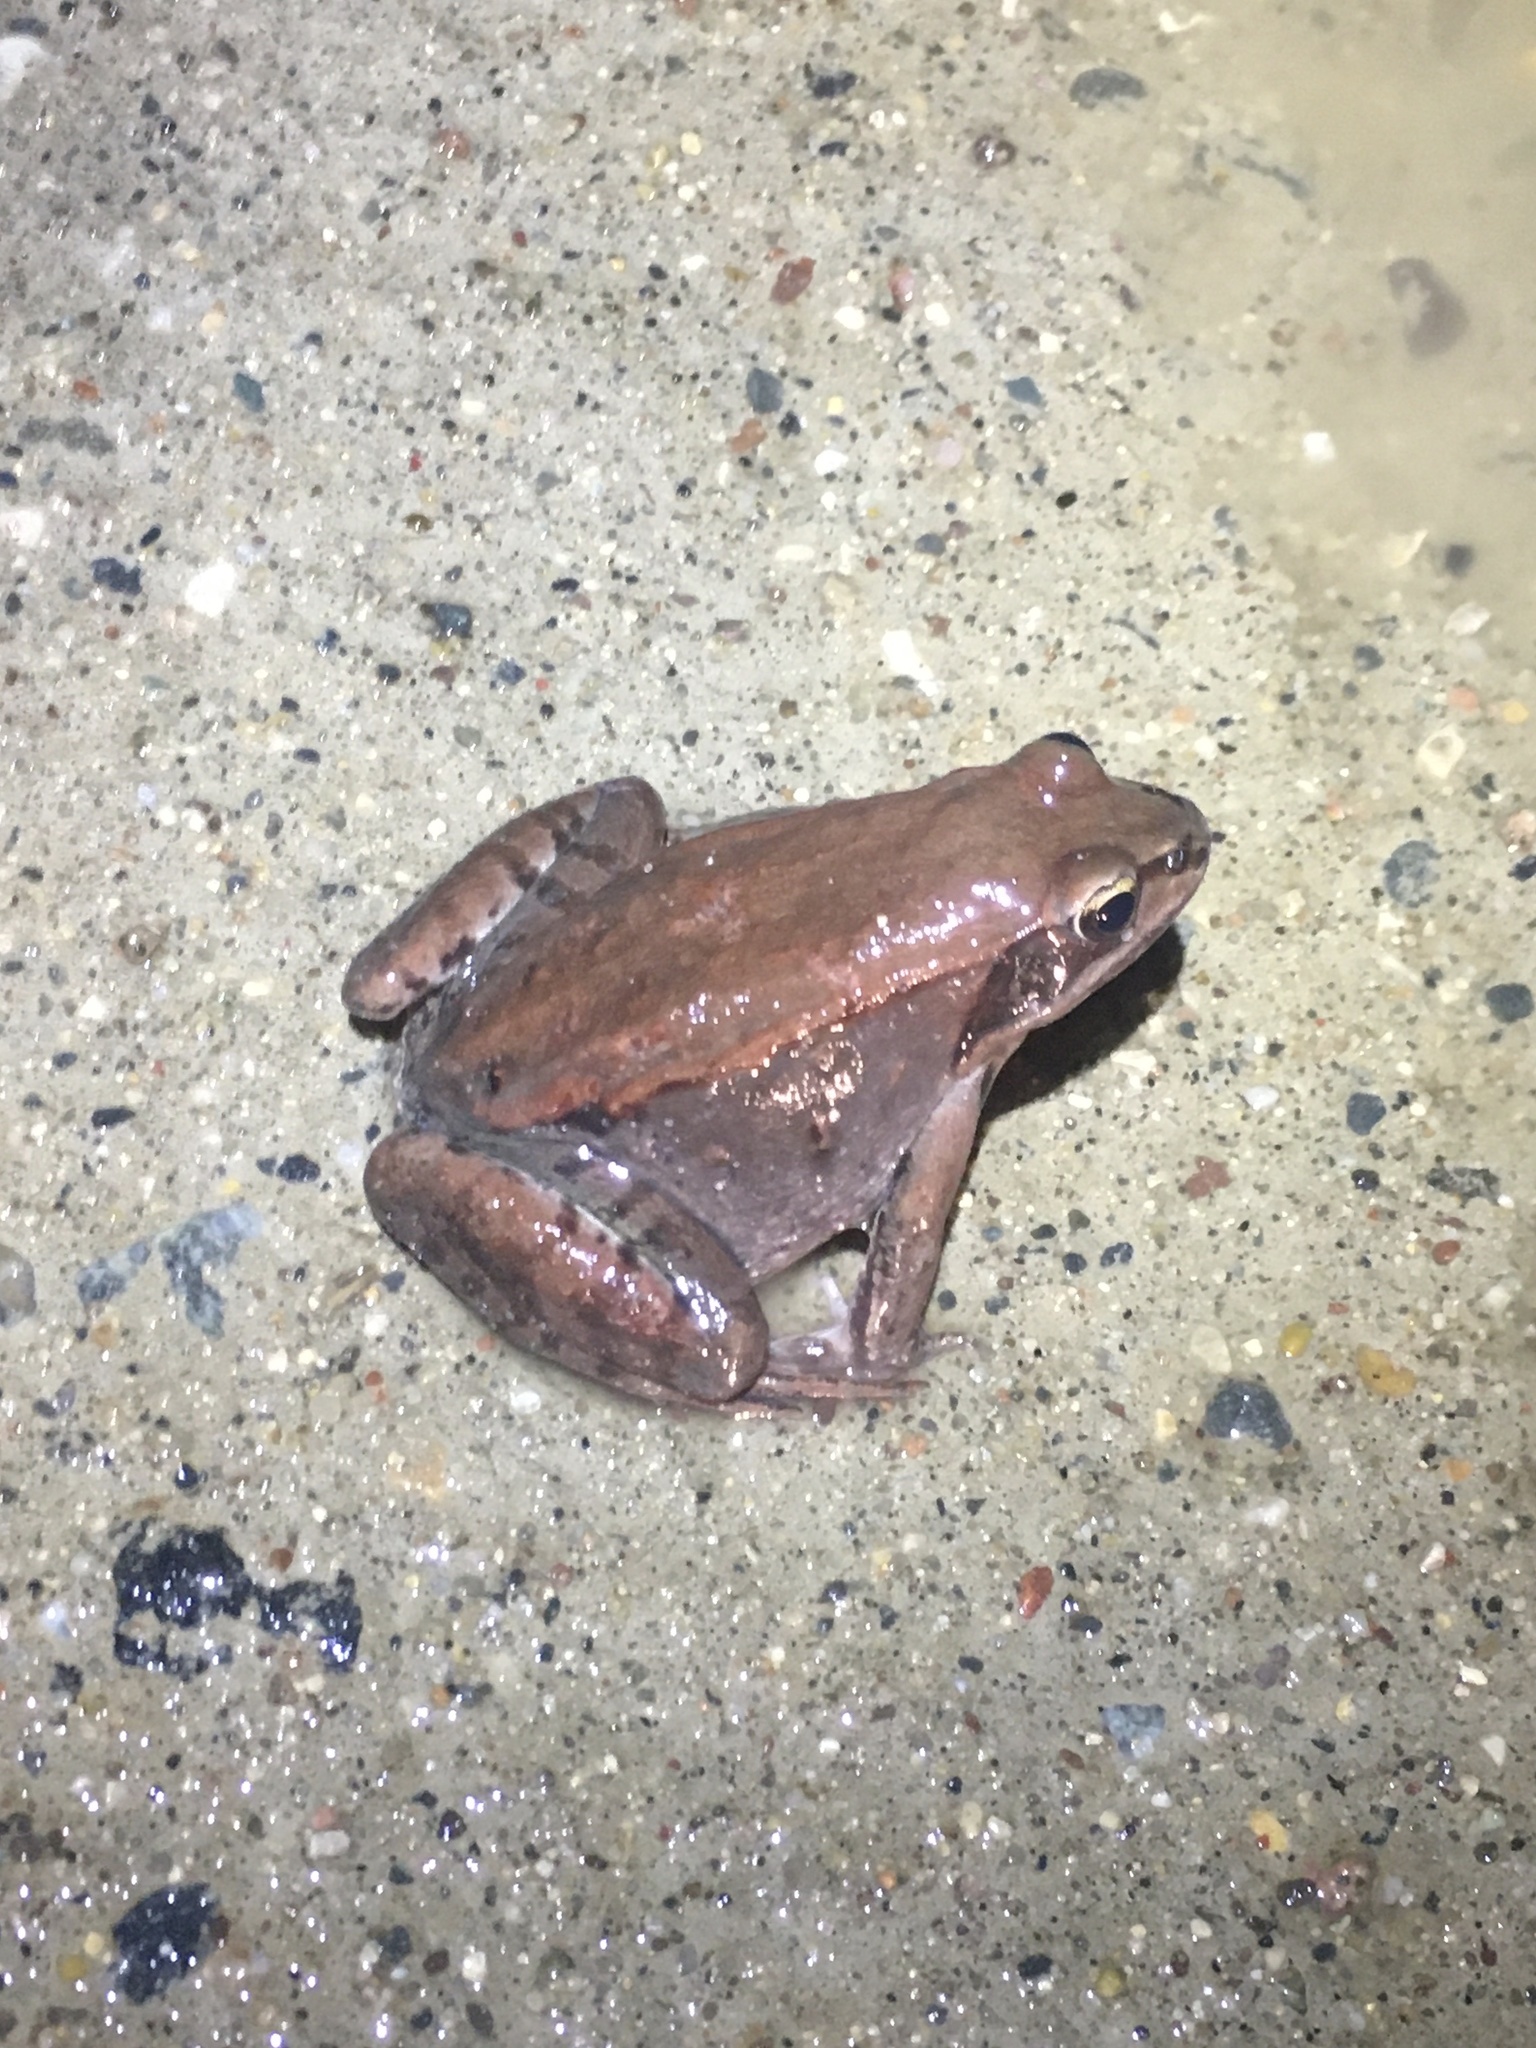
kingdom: Animalia
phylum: Chordata
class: Amphibia
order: Anura
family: Ranidae
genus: Lithobates
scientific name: Lithobates sylvaticus
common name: Wood frog
